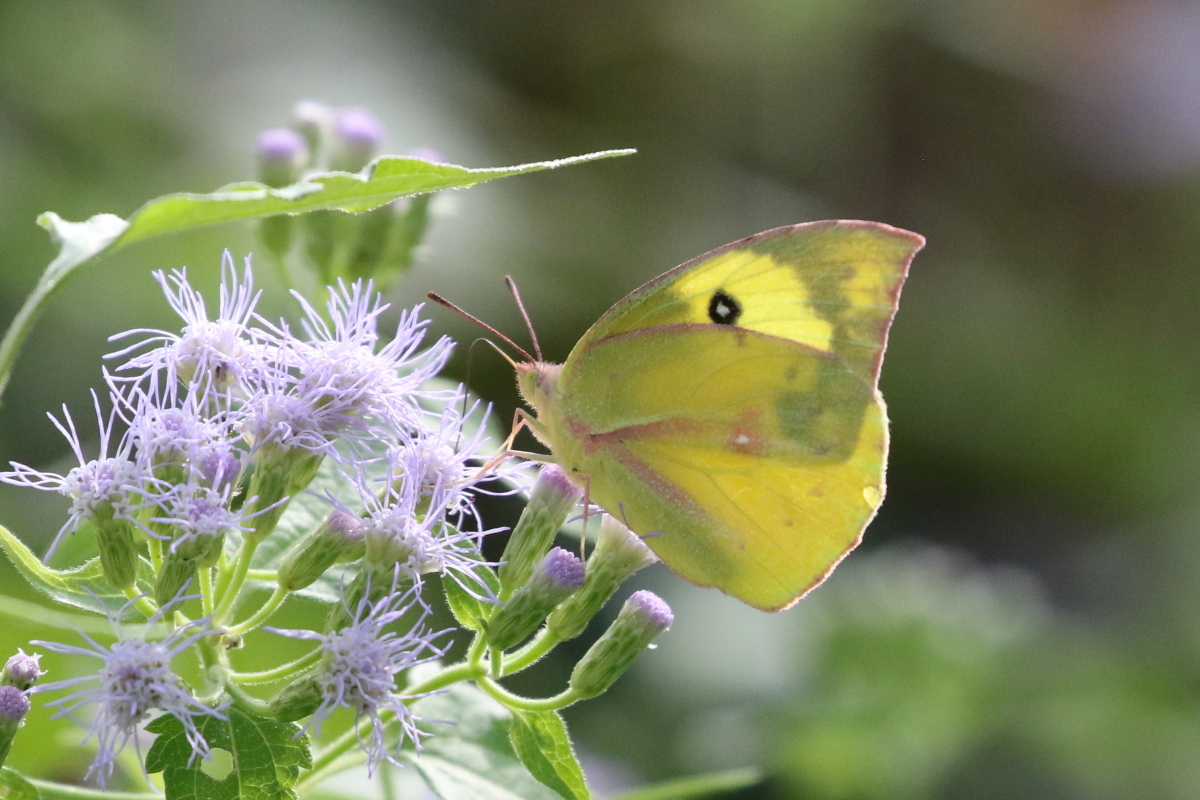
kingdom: Animalia
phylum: Arthropoda
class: Insecta
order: Lepidoptera
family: Pieridae
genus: Zerene
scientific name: Zerene cesonia
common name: Southern dogface
